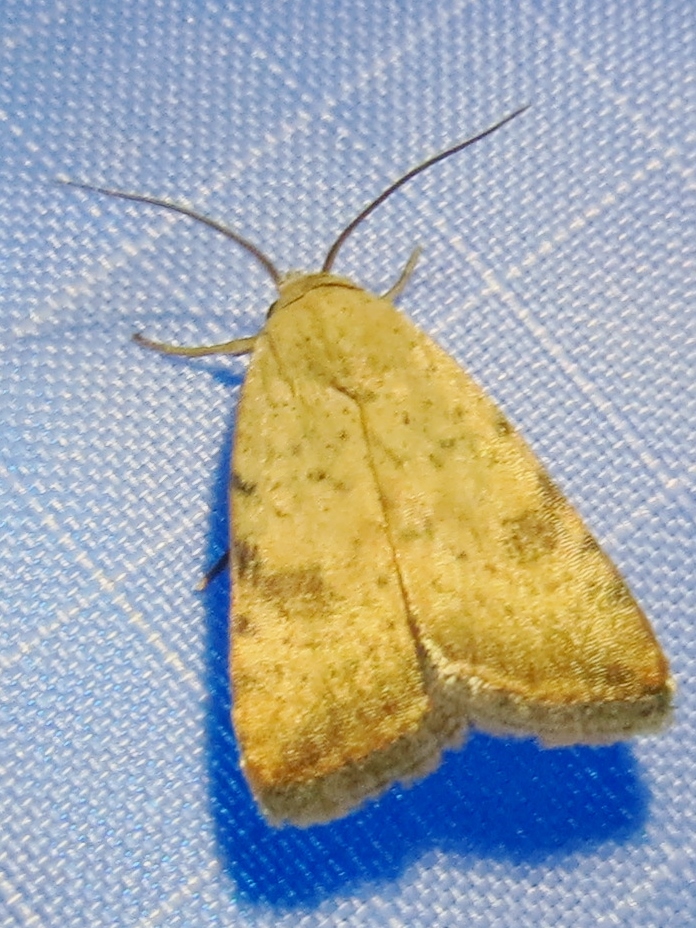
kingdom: Animalia
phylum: Arthropoda
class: Insecta
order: Lepidoptera
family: Noctuidae
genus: Micrathetis
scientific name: Micrathetis triplex
